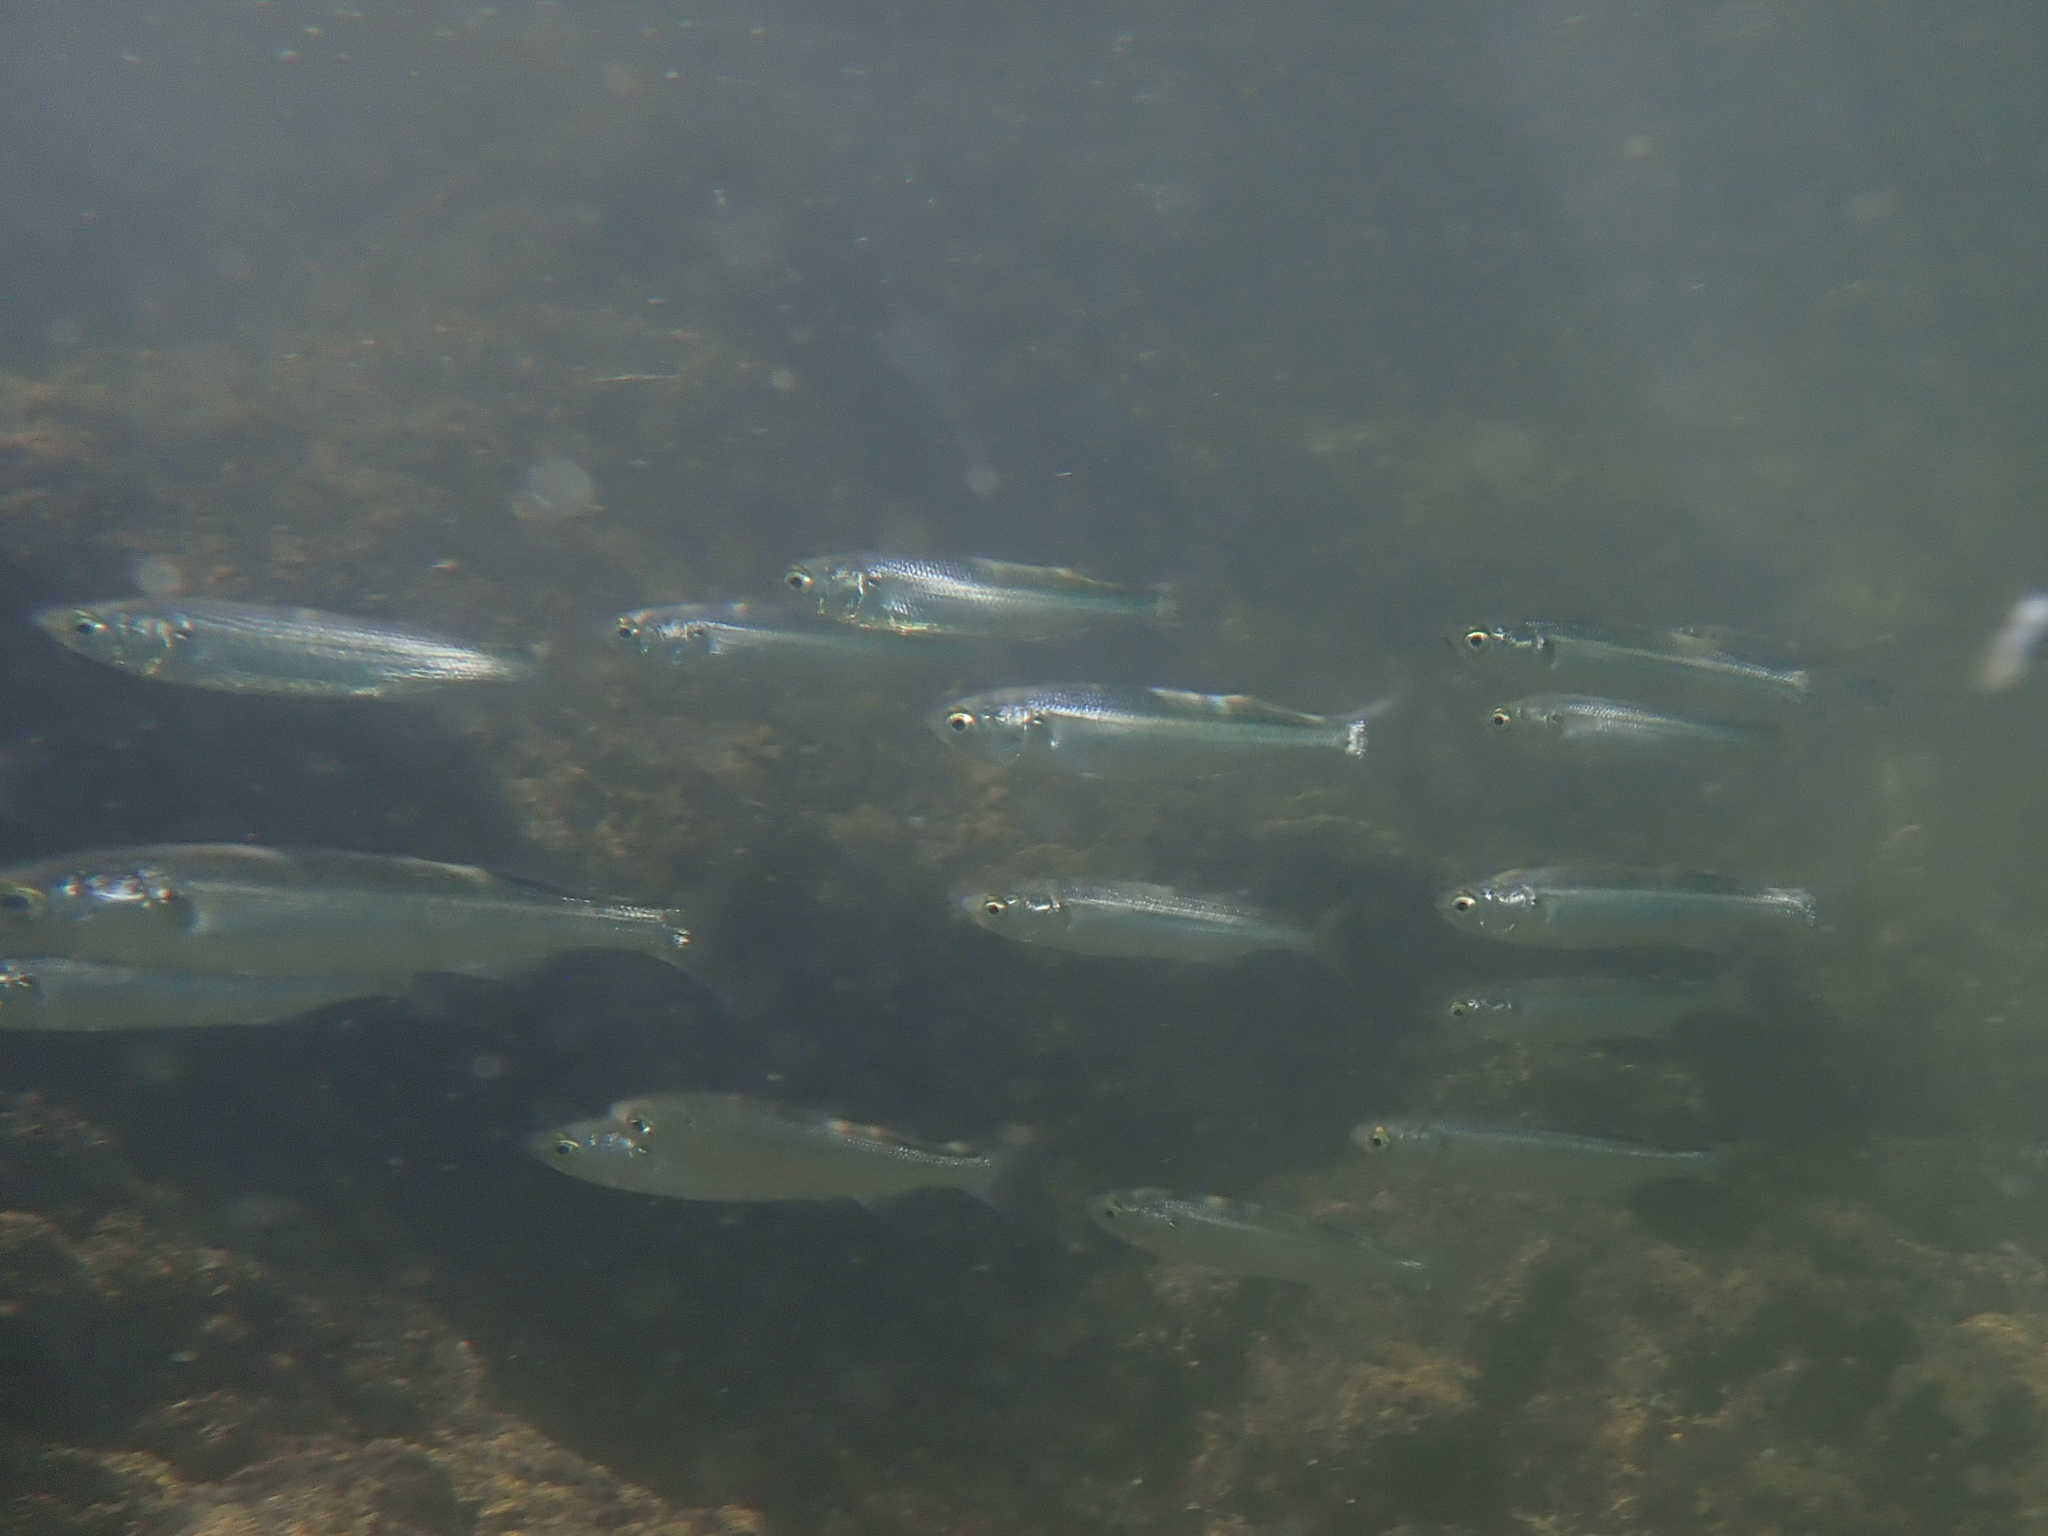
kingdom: Animalia
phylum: Chordata
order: Mugiliformes
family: Mugilidae
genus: Aldrichetta
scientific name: Aldrichetta forsteri
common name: Yellow-eye mullet
